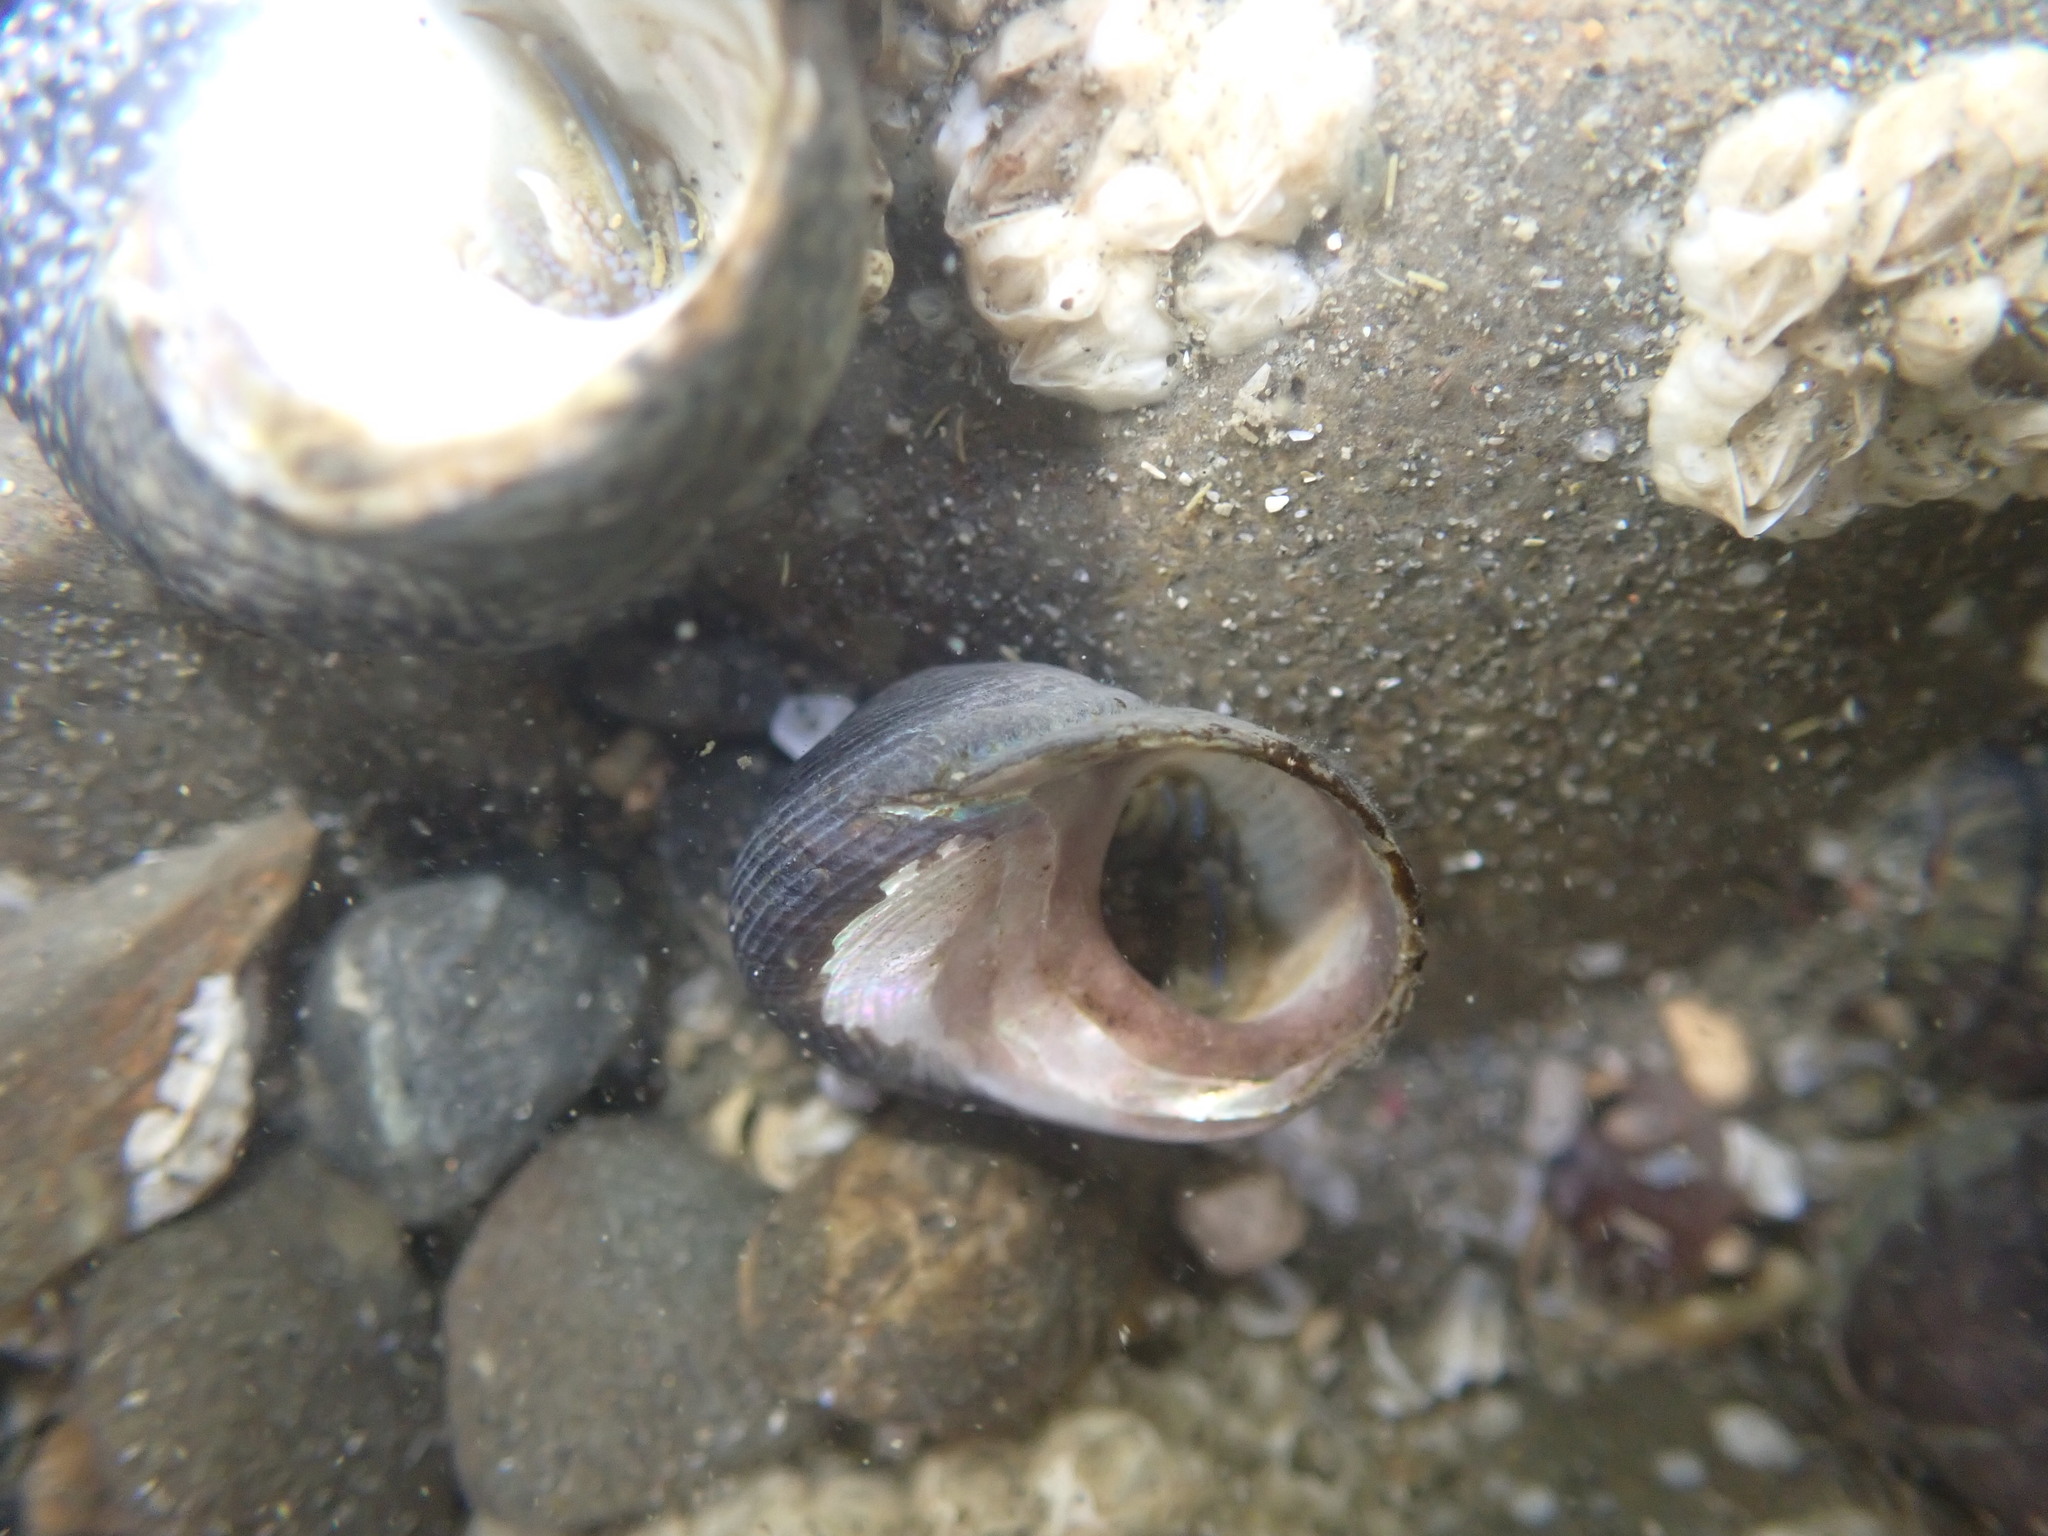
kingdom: Animalia
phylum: Mollusca
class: Gastropoda
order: Trochida
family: Trochidae
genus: Diloma
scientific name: Diloma nigerrimum
